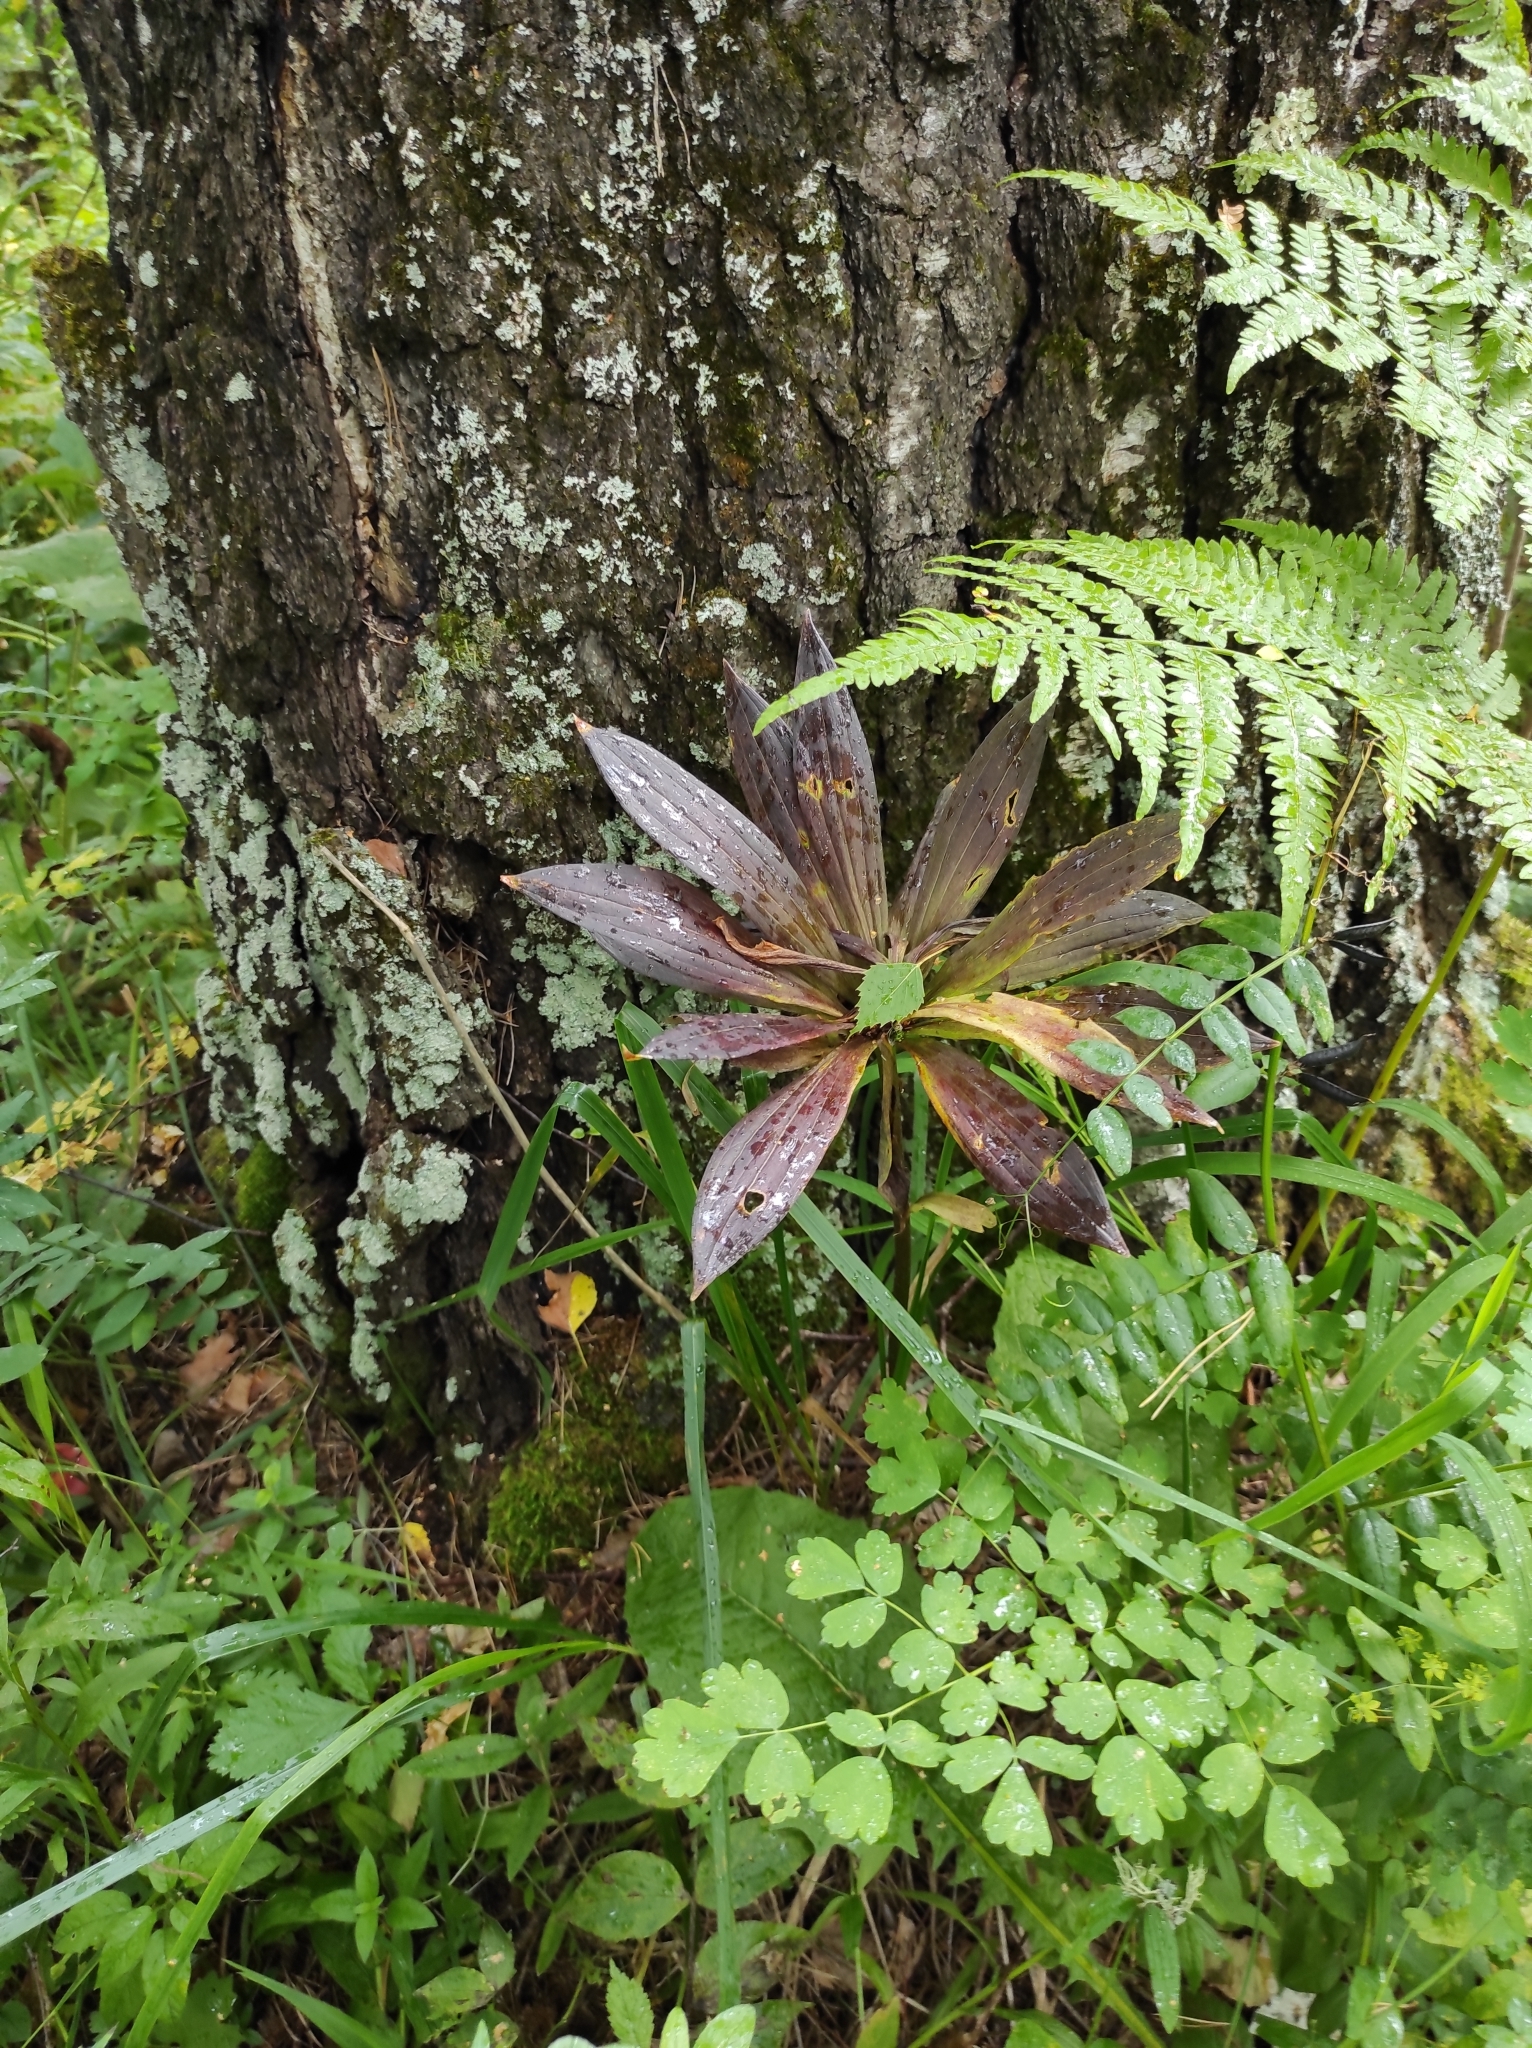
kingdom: Plantae
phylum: Tracheophyta
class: Liliopsida
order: Liliales
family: Liliaceae
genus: Lilium
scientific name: Lilium martagon
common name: Martagon lily
